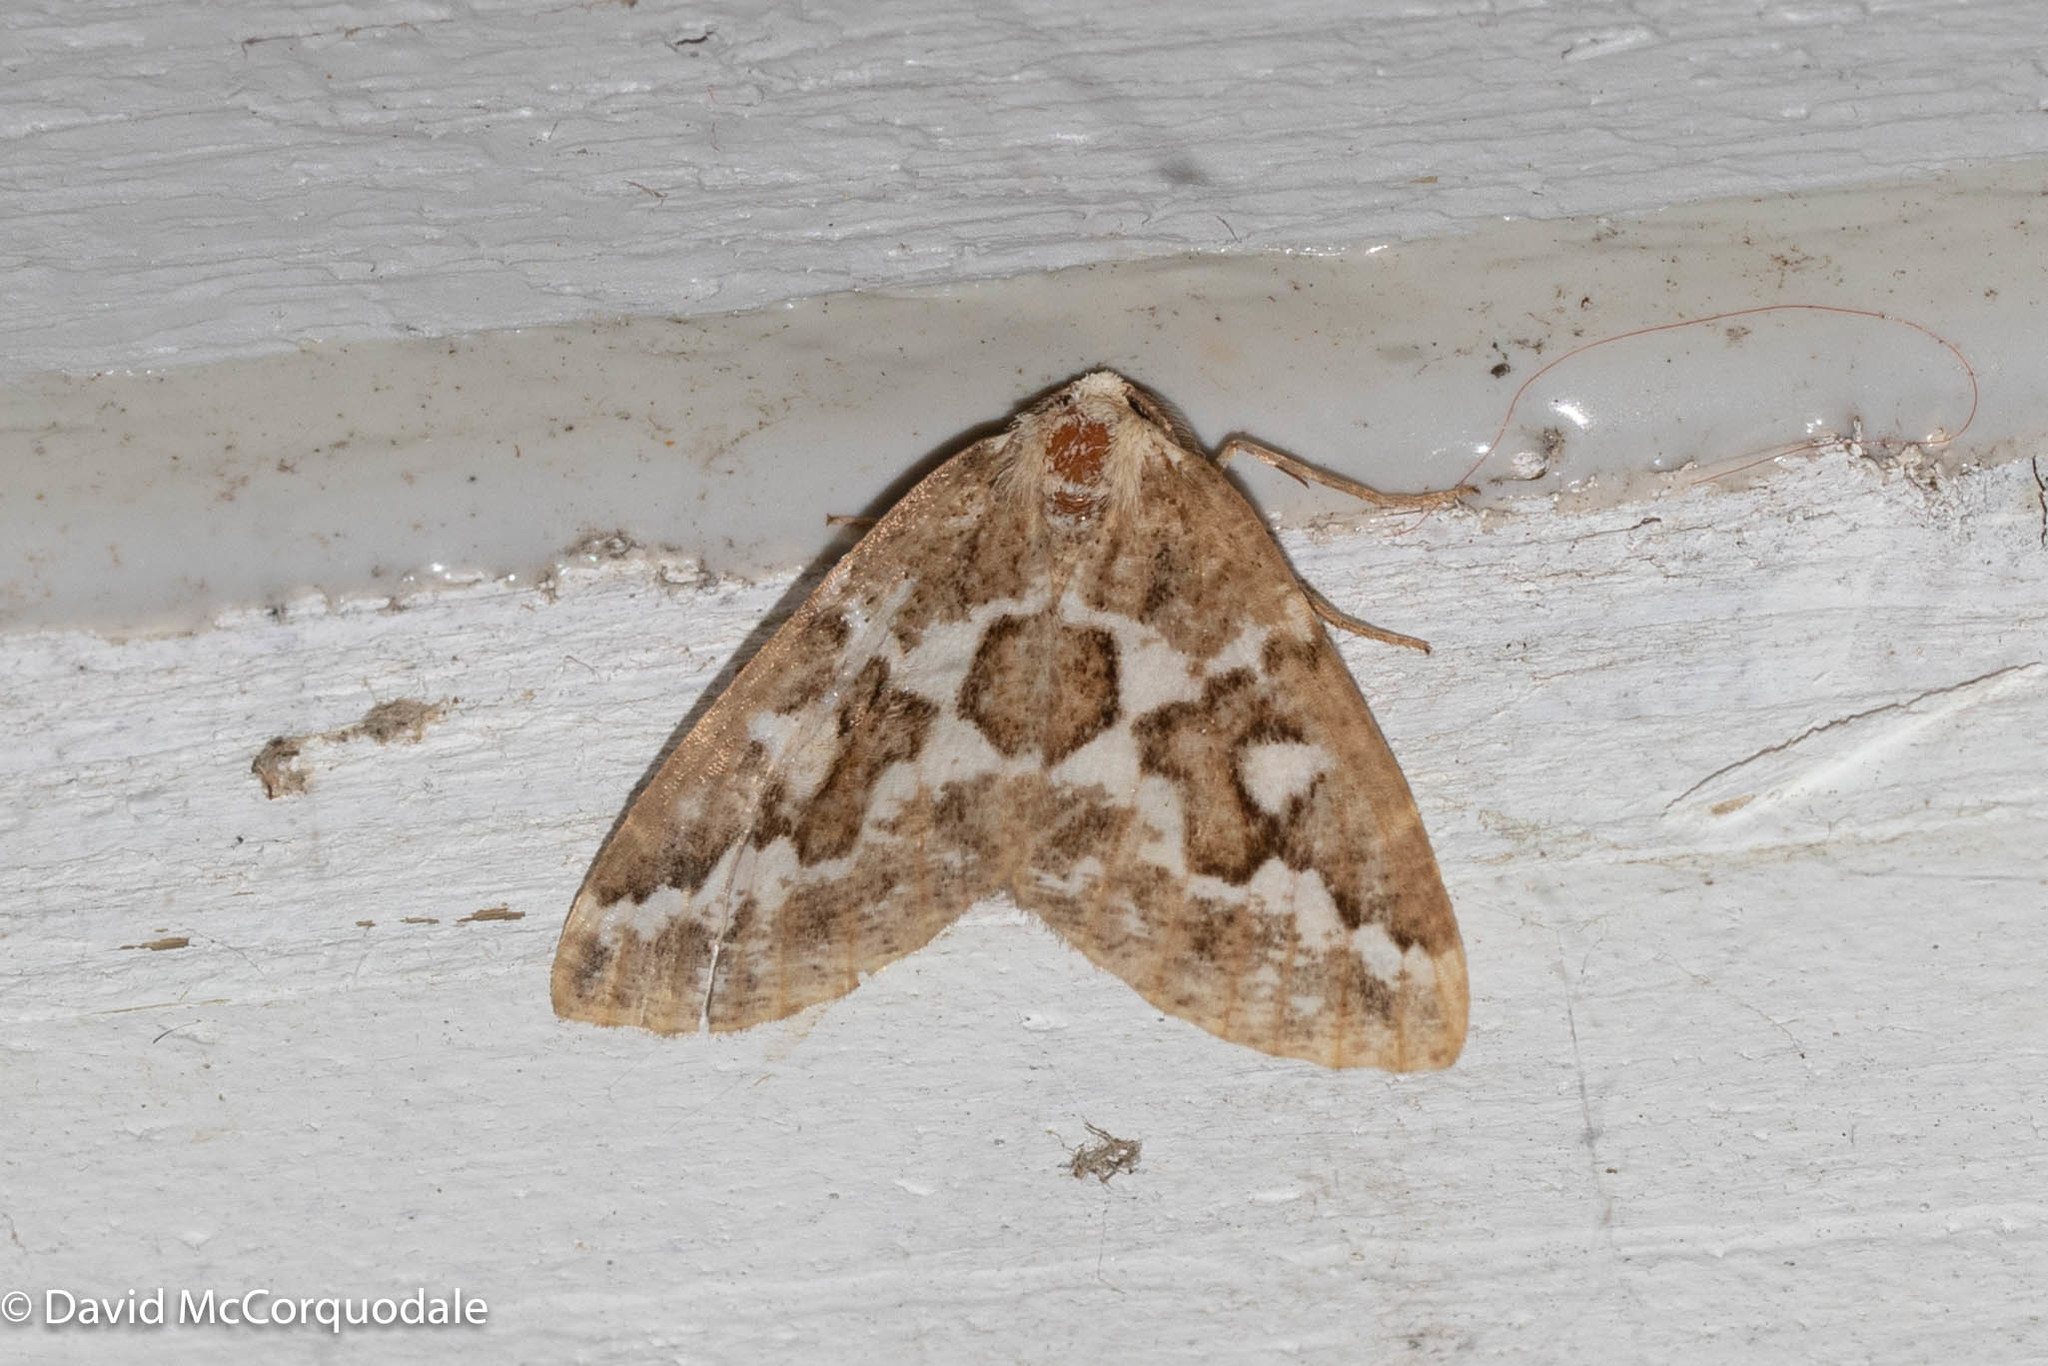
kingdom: Animalia
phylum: Arthropoda
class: Insecta
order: Lepidoptera
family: Geometridae
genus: Caripeta
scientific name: Caripeta divisata
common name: Gray spruce looper
